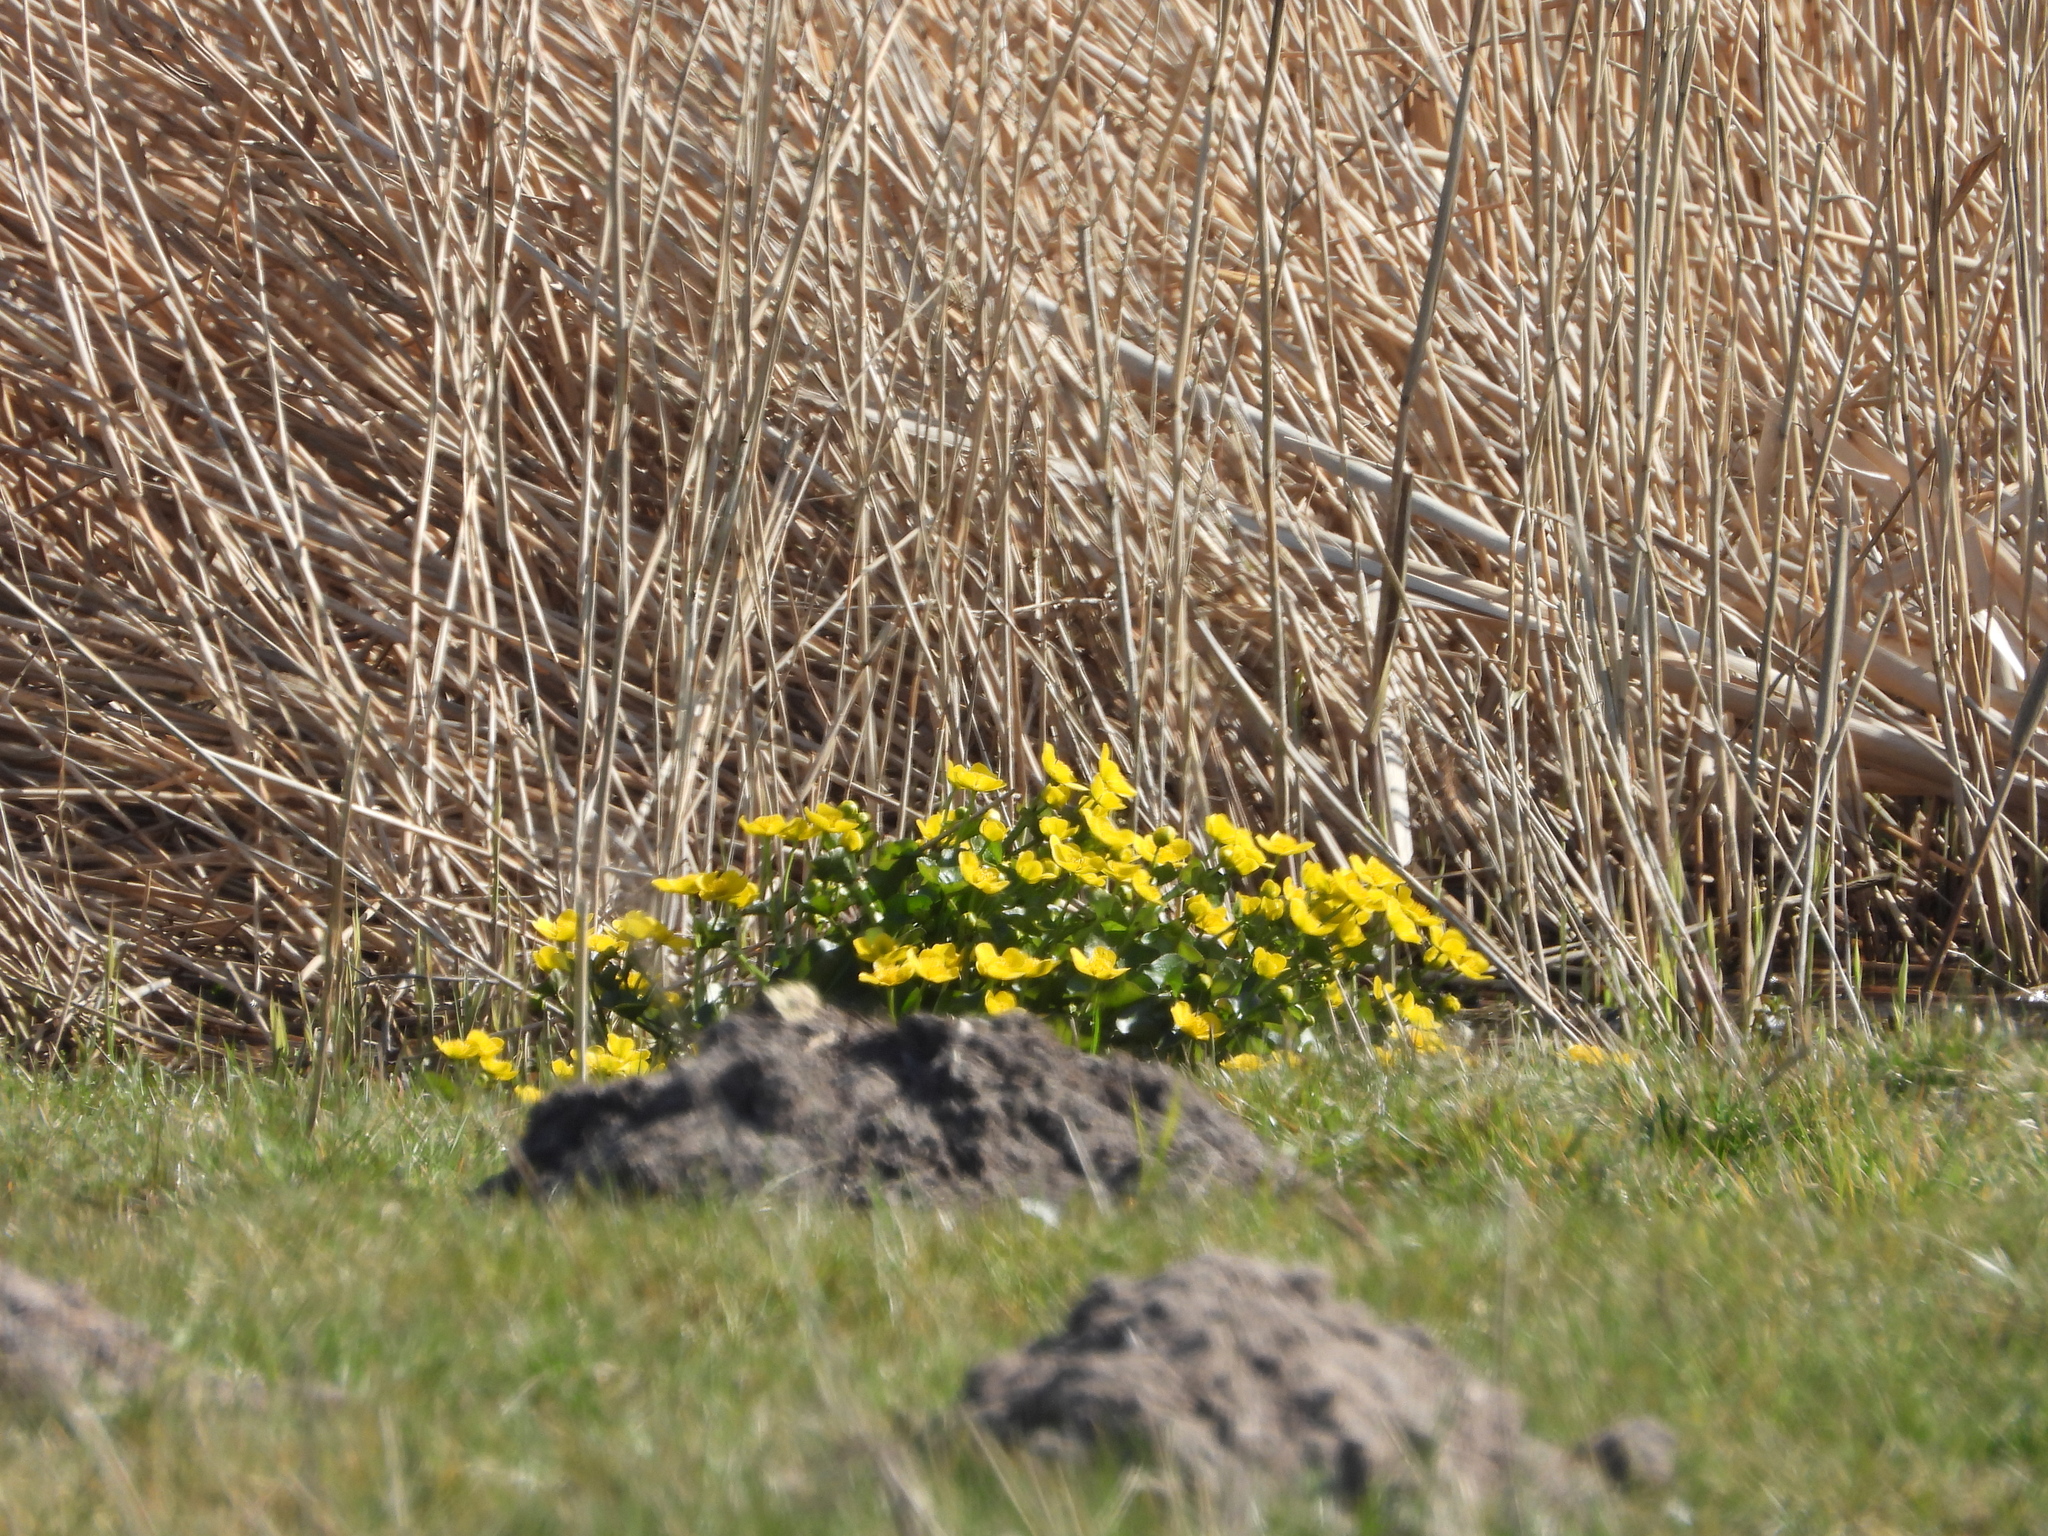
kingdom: Plantae
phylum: Tracheophyta
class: Magnoliopsida
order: Ranunculales
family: Ranunculaceae
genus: Caltha
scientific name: Caltha palustris
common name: Marsh marigold
